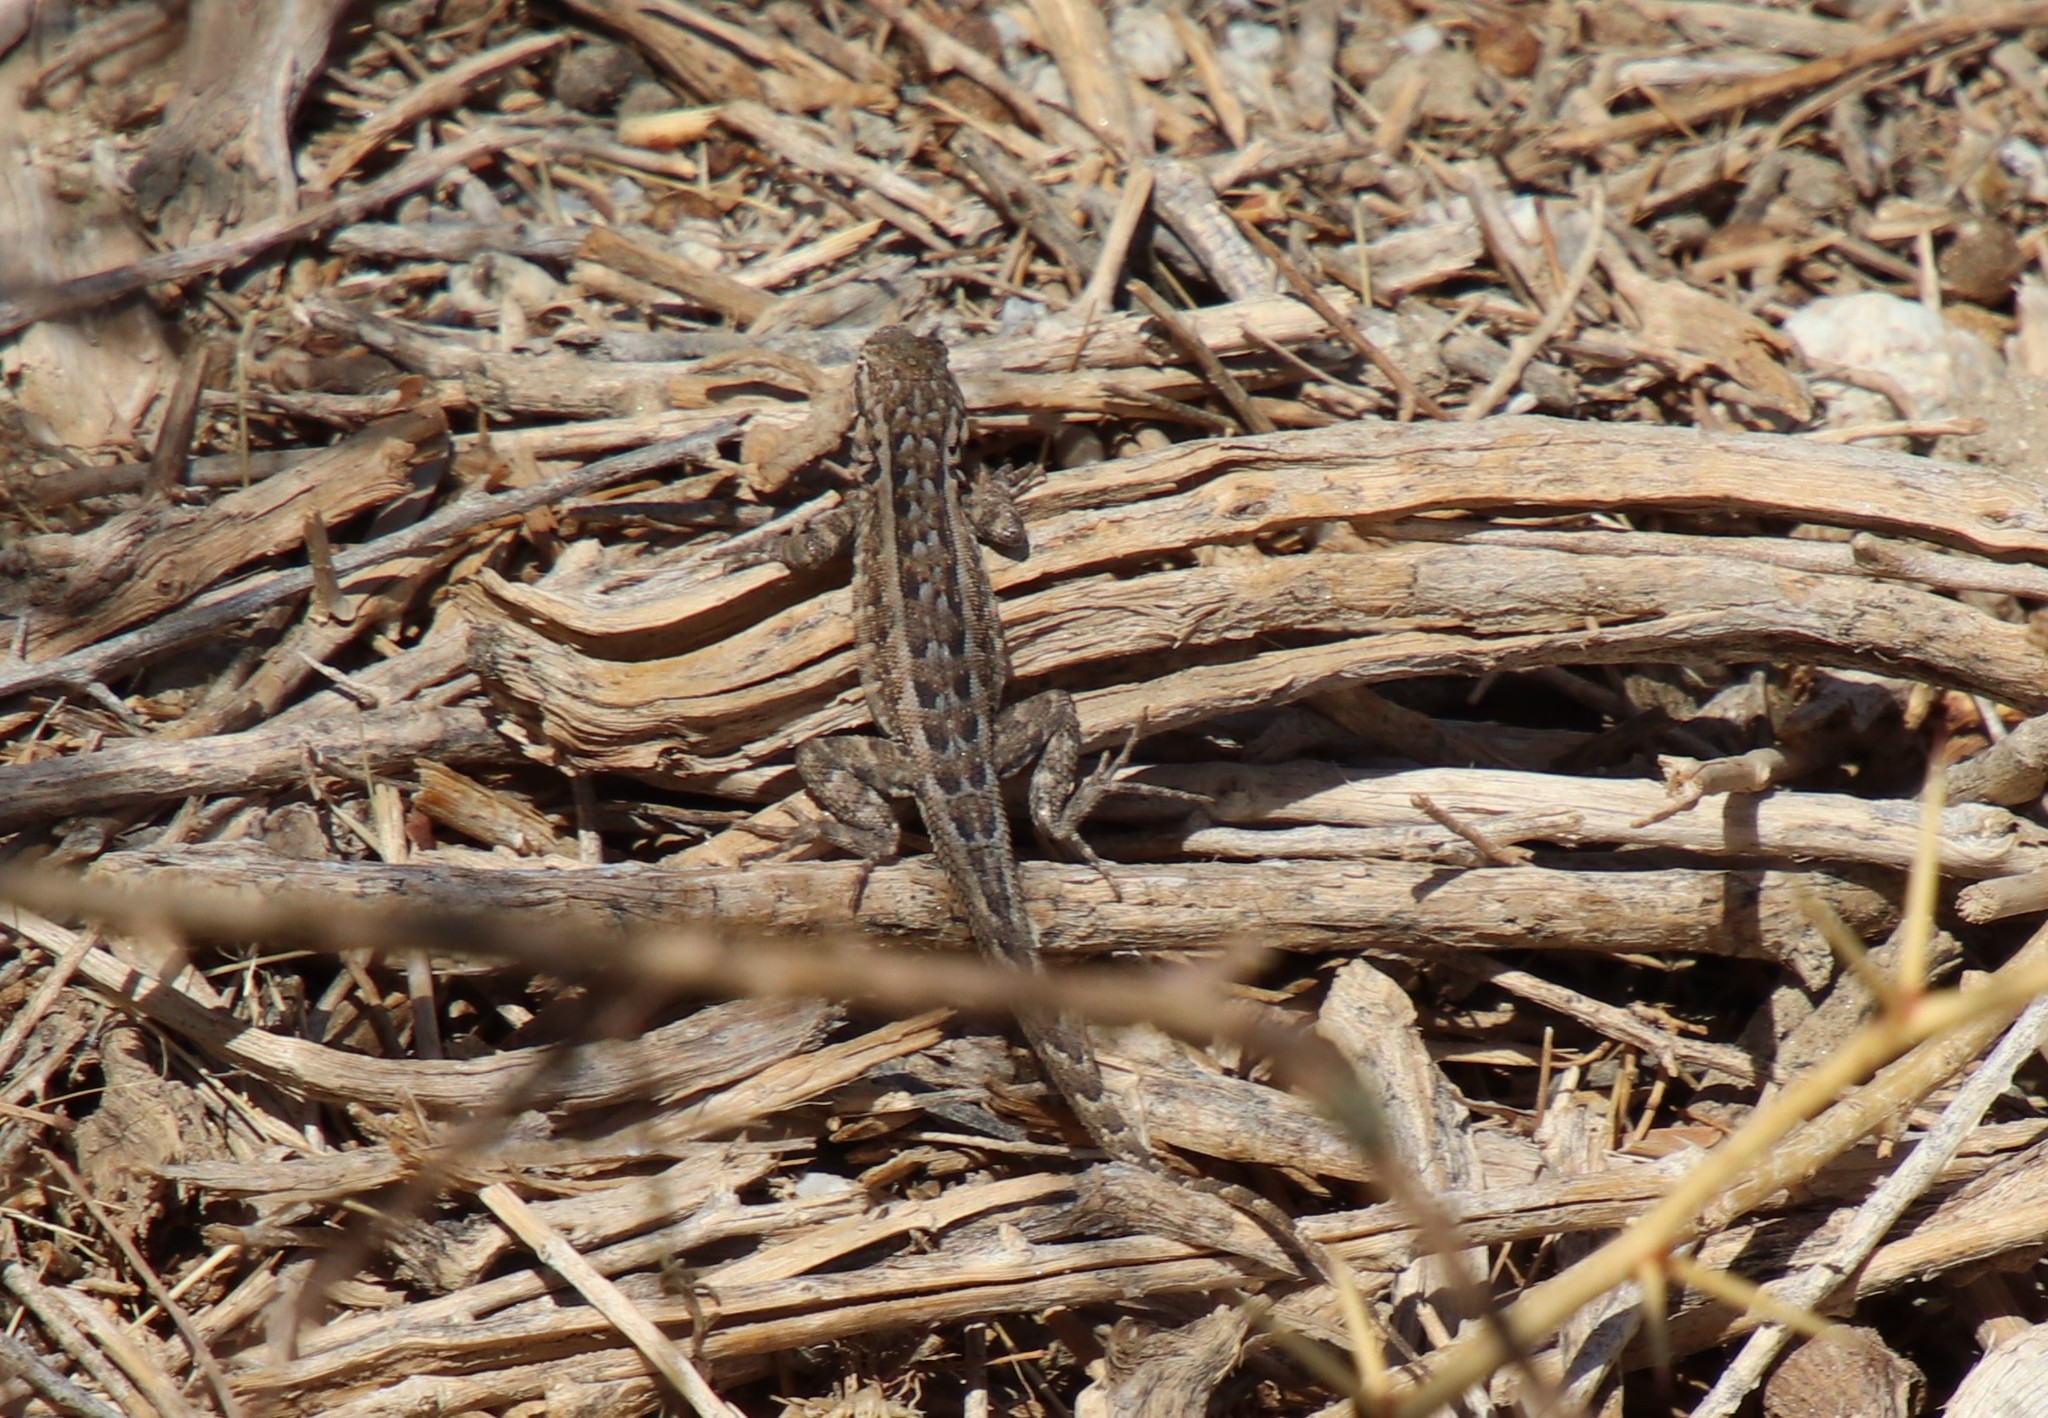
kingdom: Animalia
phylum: Chordata
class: Squamata
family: Phrynosomatidae
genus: Uta
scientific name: Uta stansburiana
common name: Side-blotched lizard
